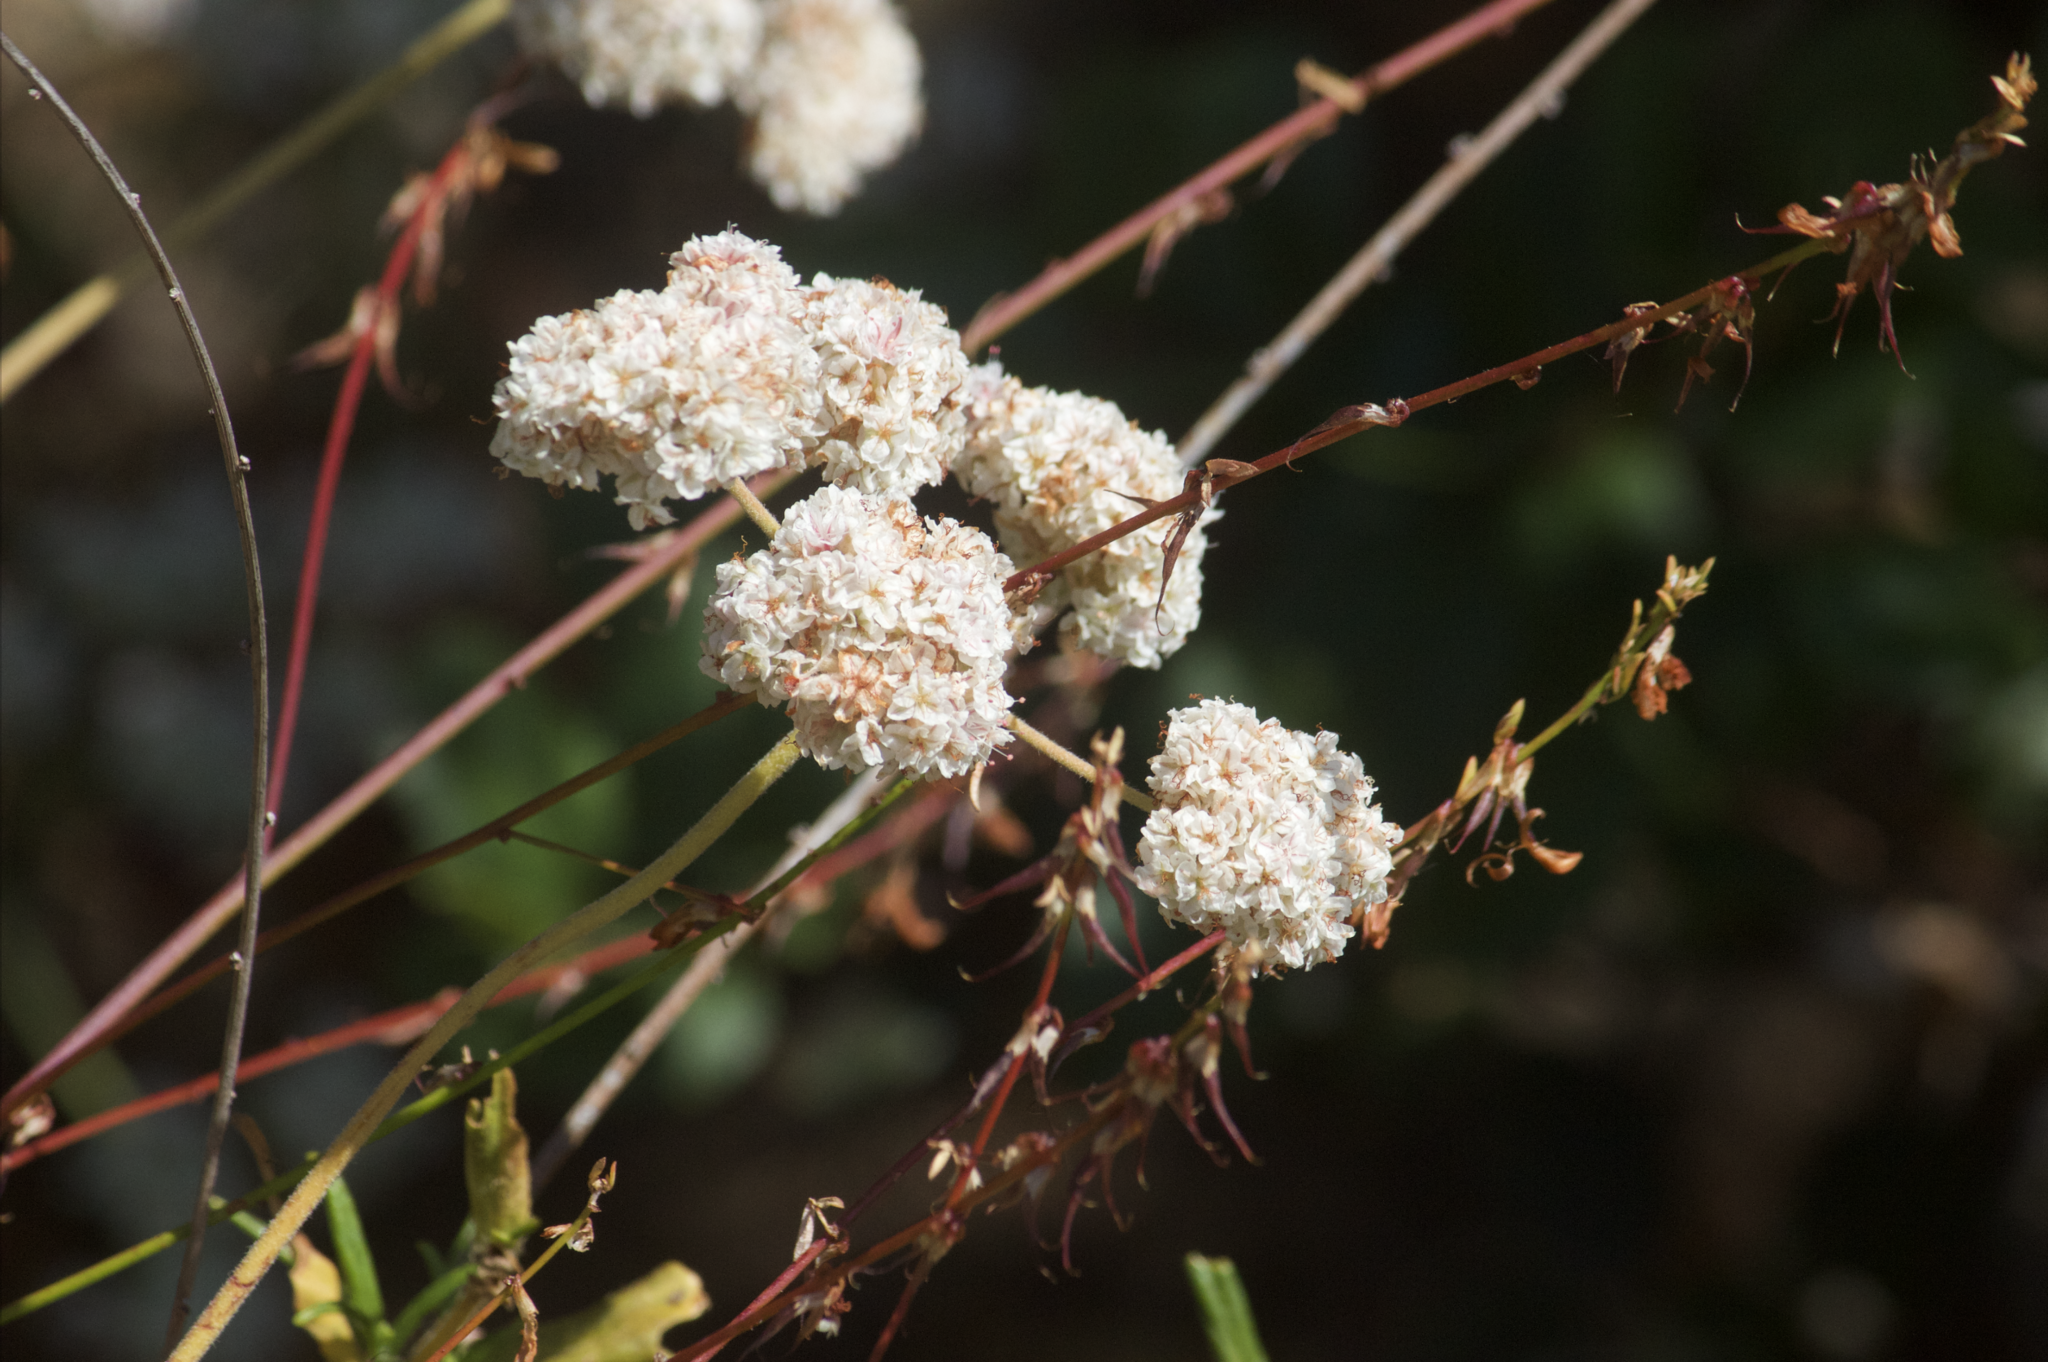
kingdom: Plantae
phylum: Tracheophyta
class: Magnoliopsida
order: Caryophyllales
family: Polygonaceae
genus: Eriogonum
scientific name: Eriogonum fasciculatum
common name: California wild buckwheat
